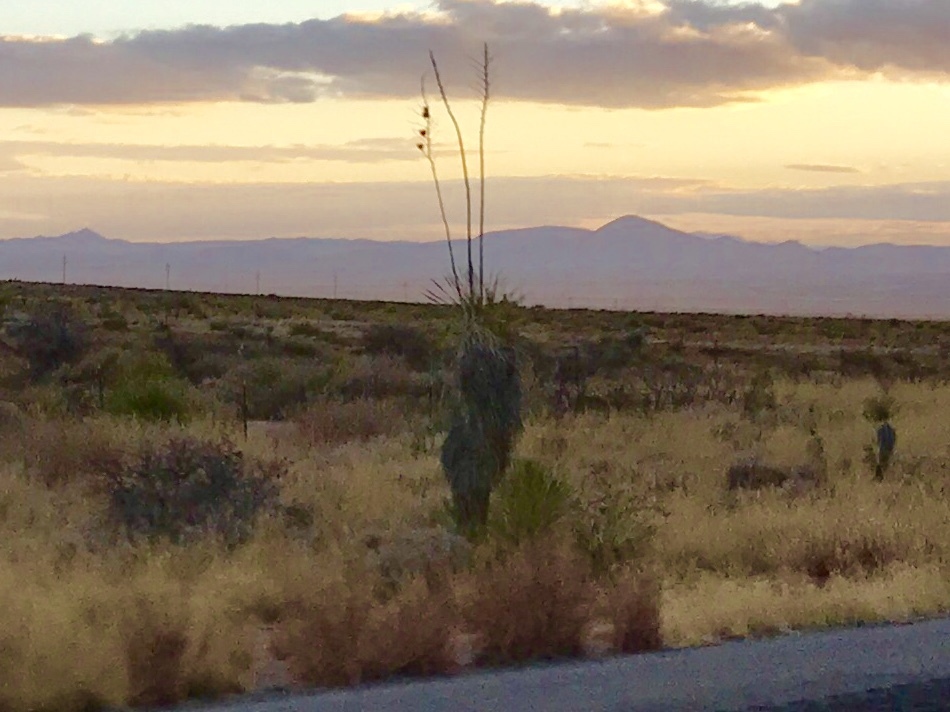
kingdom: Plantae
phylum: Tracheophyta
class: Liliopsida
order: Asparagales
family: Asparagaceae
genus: Yucca
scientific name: Yucca elata
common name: Palmella
